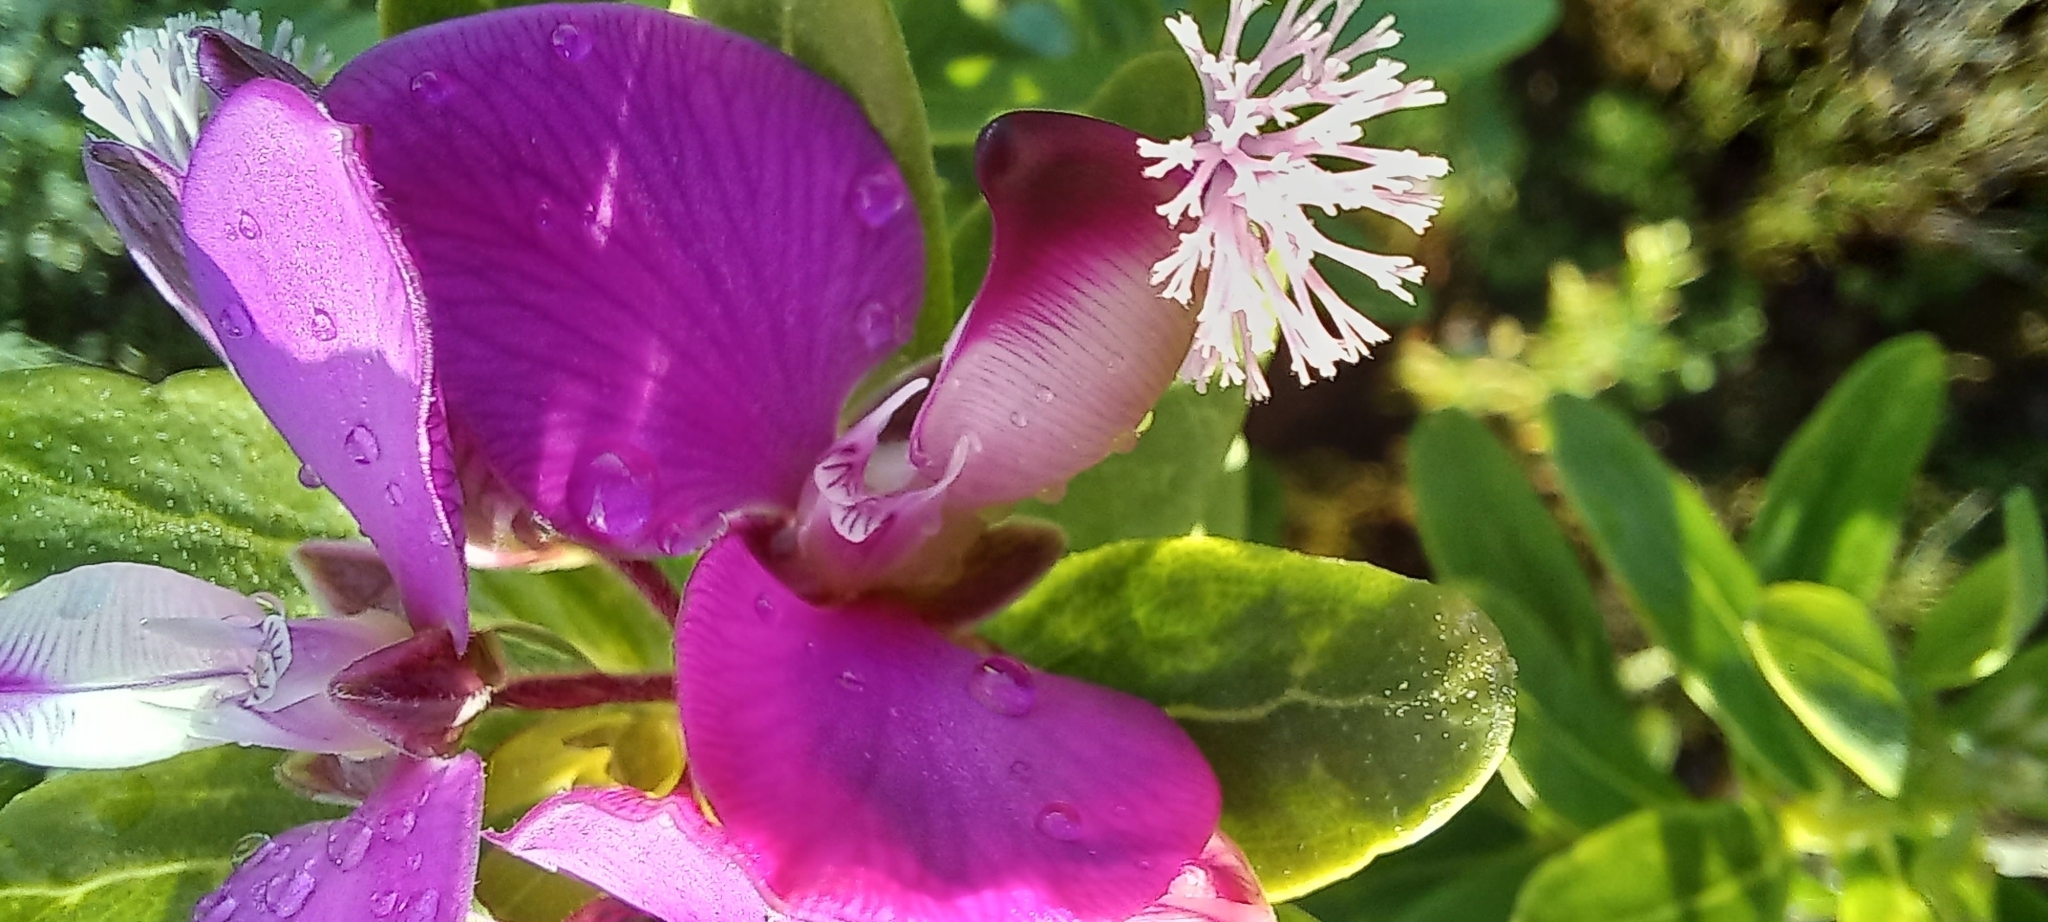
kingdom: Plantae
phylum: Tracheophyta
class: Magnoliopsida
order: Fabales
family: Polygalaceae
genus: Polygala
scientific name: Polygala myrtifolia
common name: Myrtle-leaf milkwort
